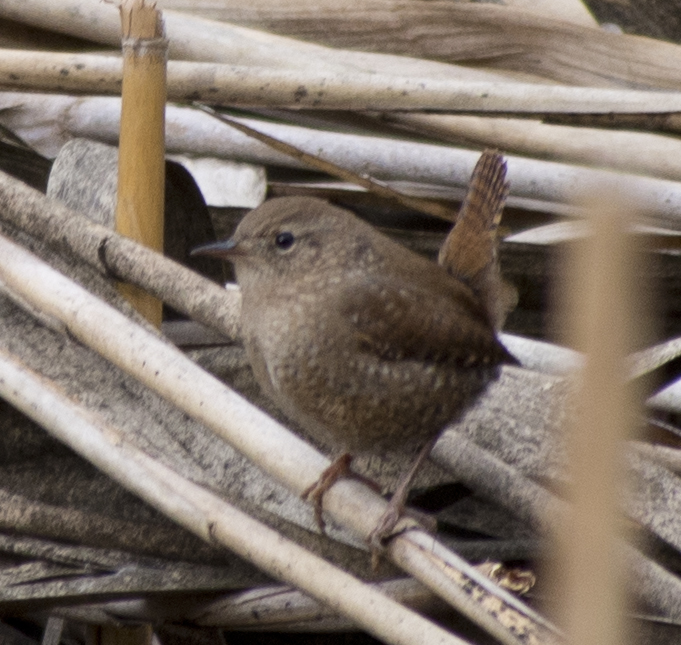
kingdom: Animalia
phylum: Chordata
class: Aves
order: Passeriformes
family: Troglodytidae
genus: Troglodytes
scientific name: Troglodytes hiemalis
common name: Winter wren
